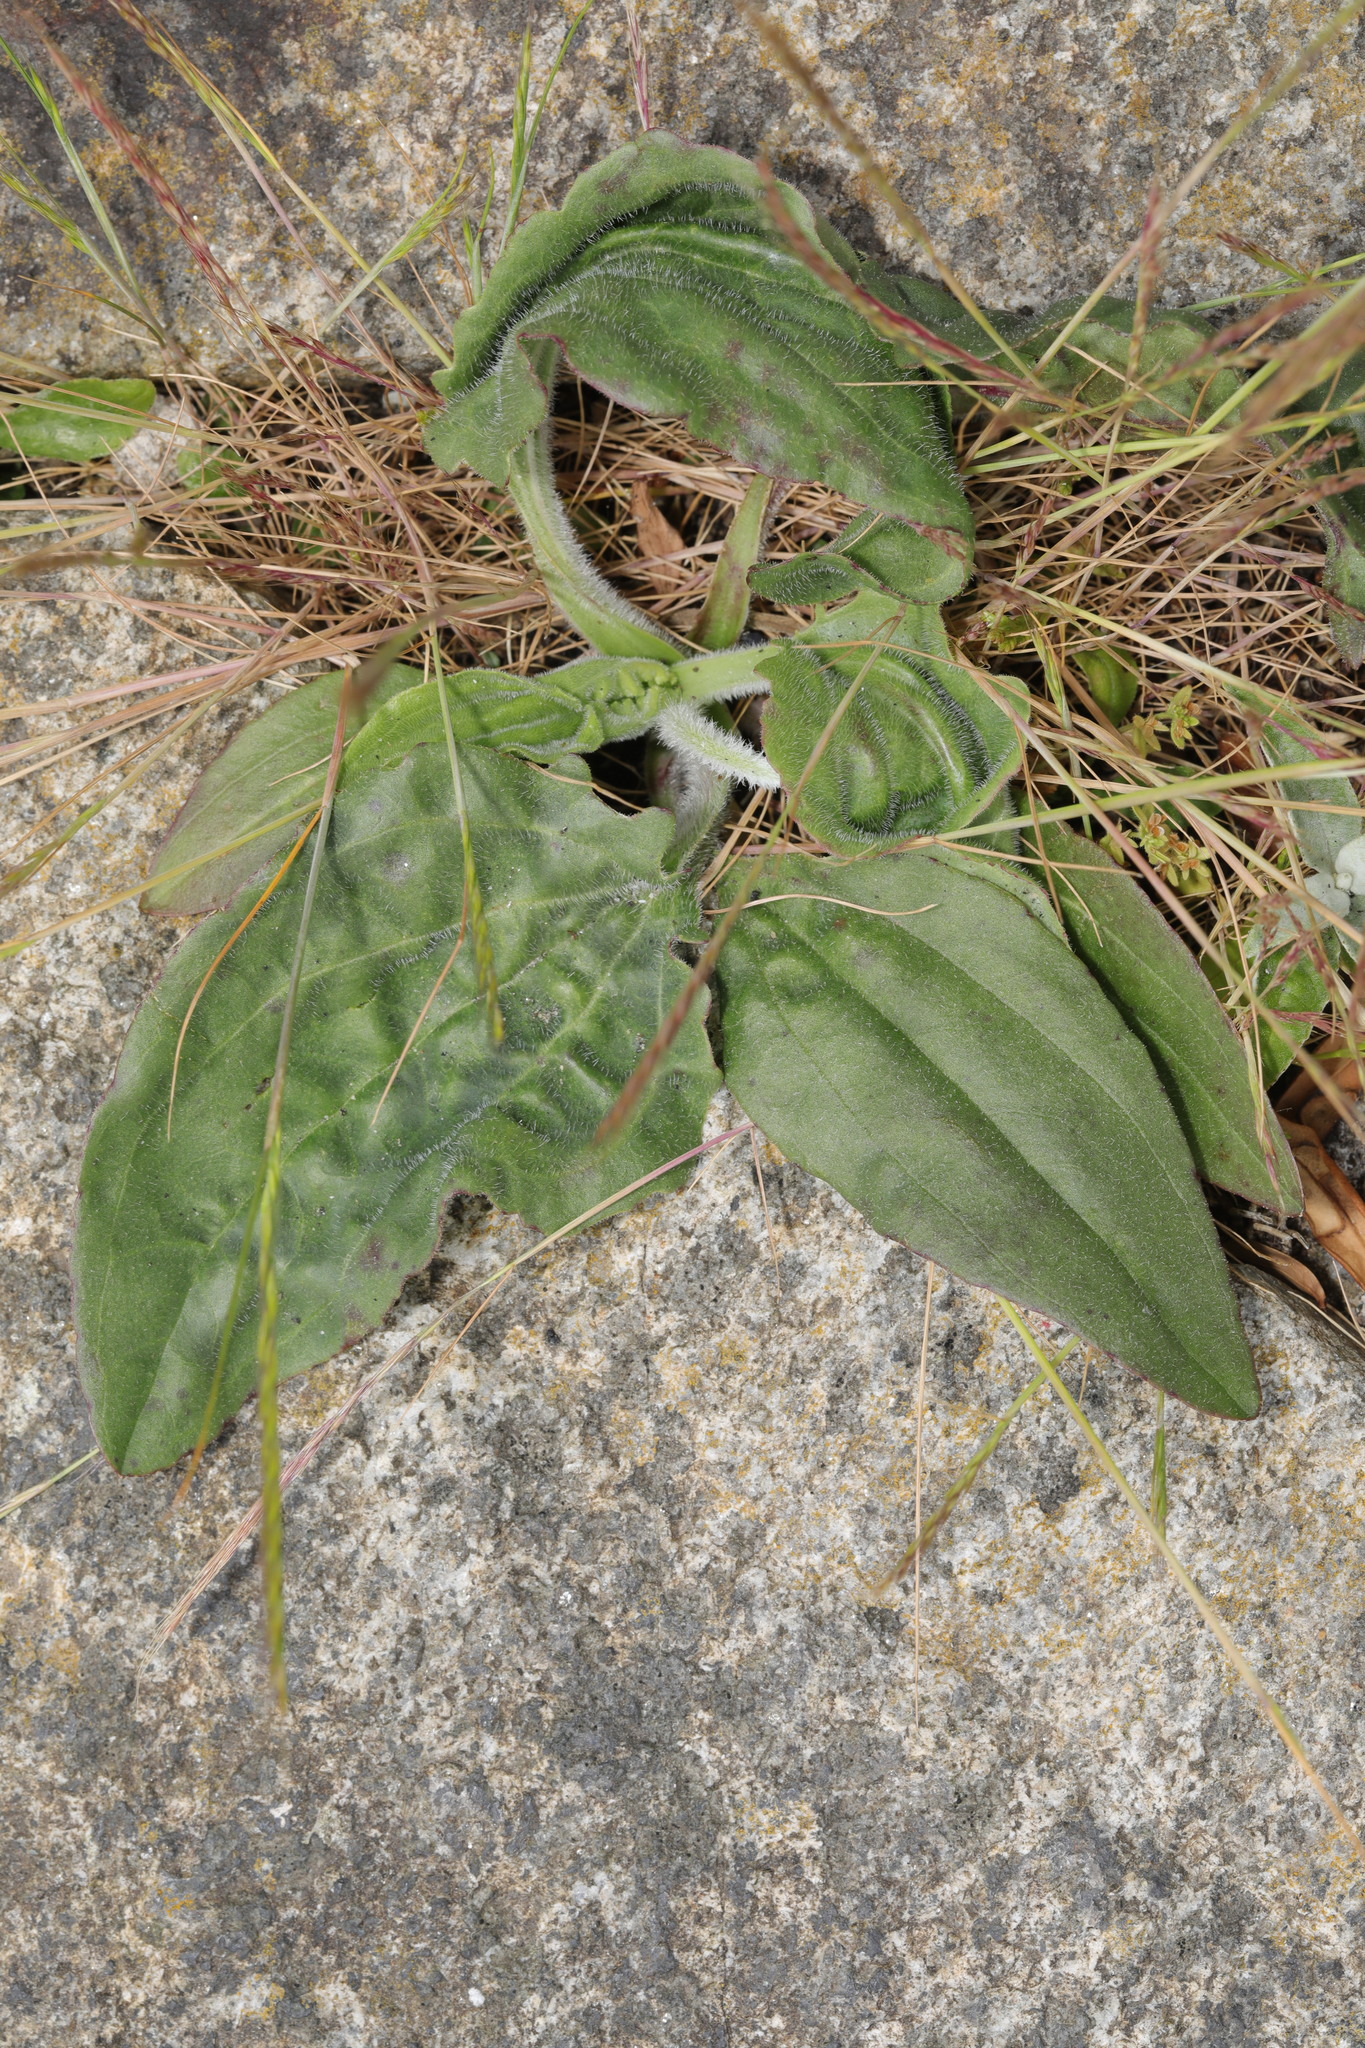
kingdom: Plantae
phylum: Tracheophyta
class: Magnoliopsida
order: Lamiales
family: Plantaginaceae
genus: Plantago
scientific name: Plantago major
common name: Common plantain
